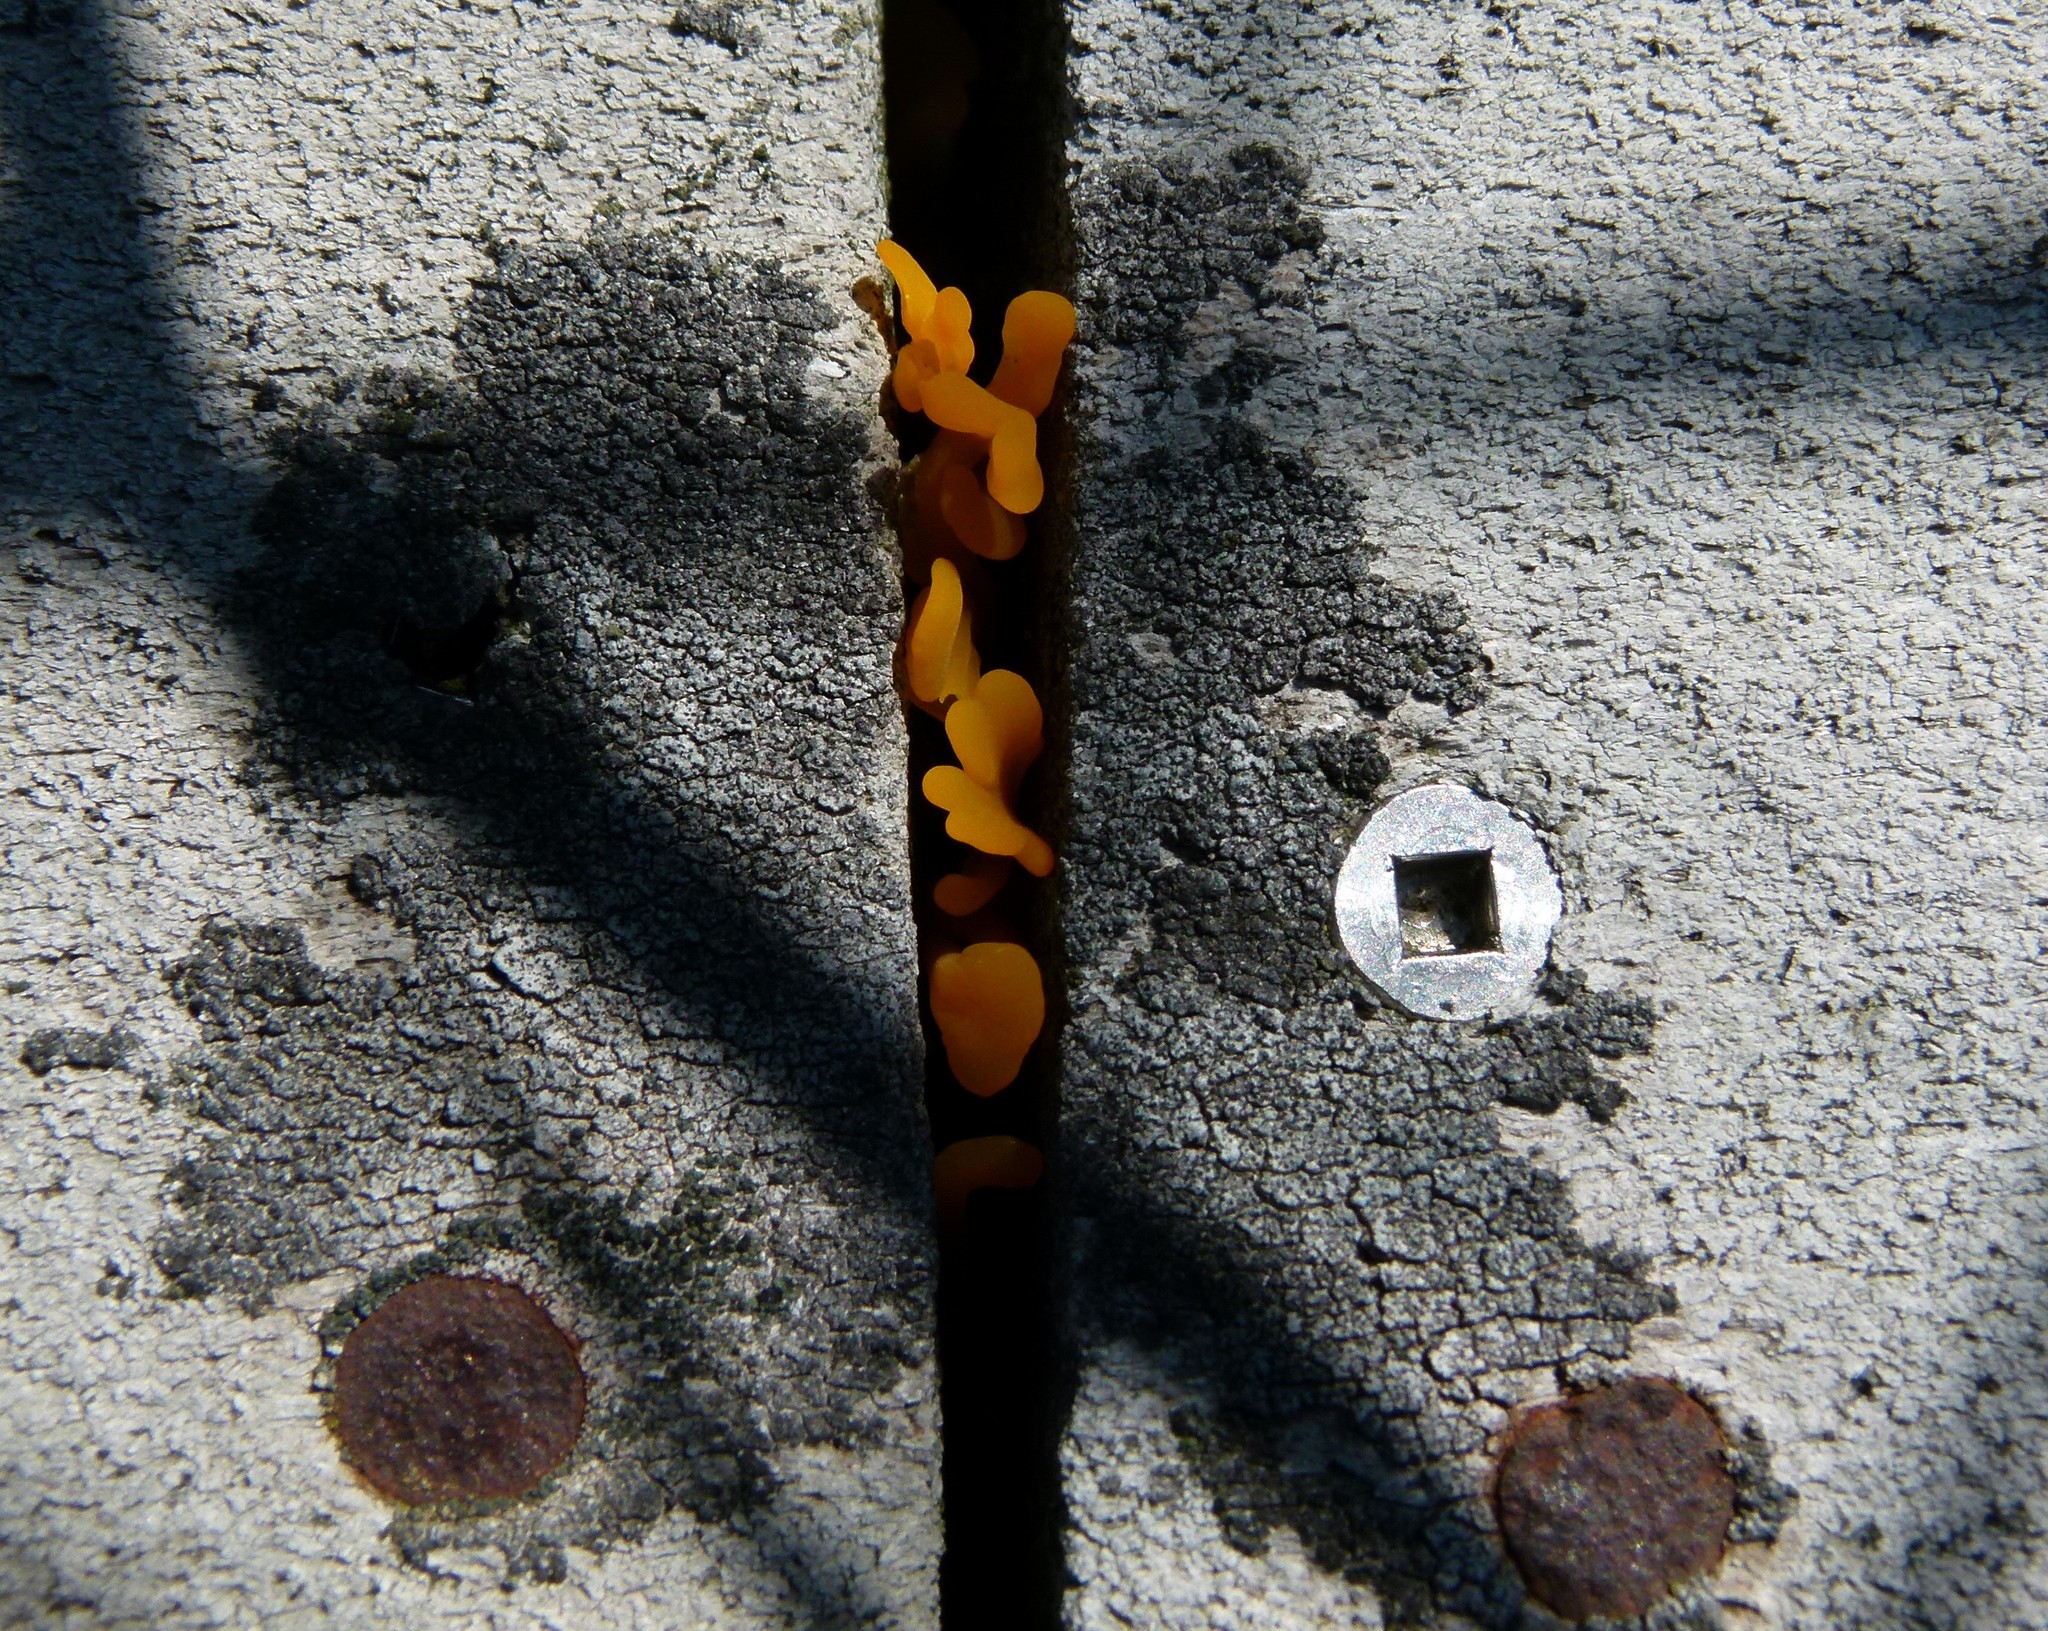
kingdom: Fungi
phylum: Basidiomycota
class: Tremellomycetes
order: Tremellales
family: Tremellaceae
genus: Tremella
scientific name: Tremella mesenterica
